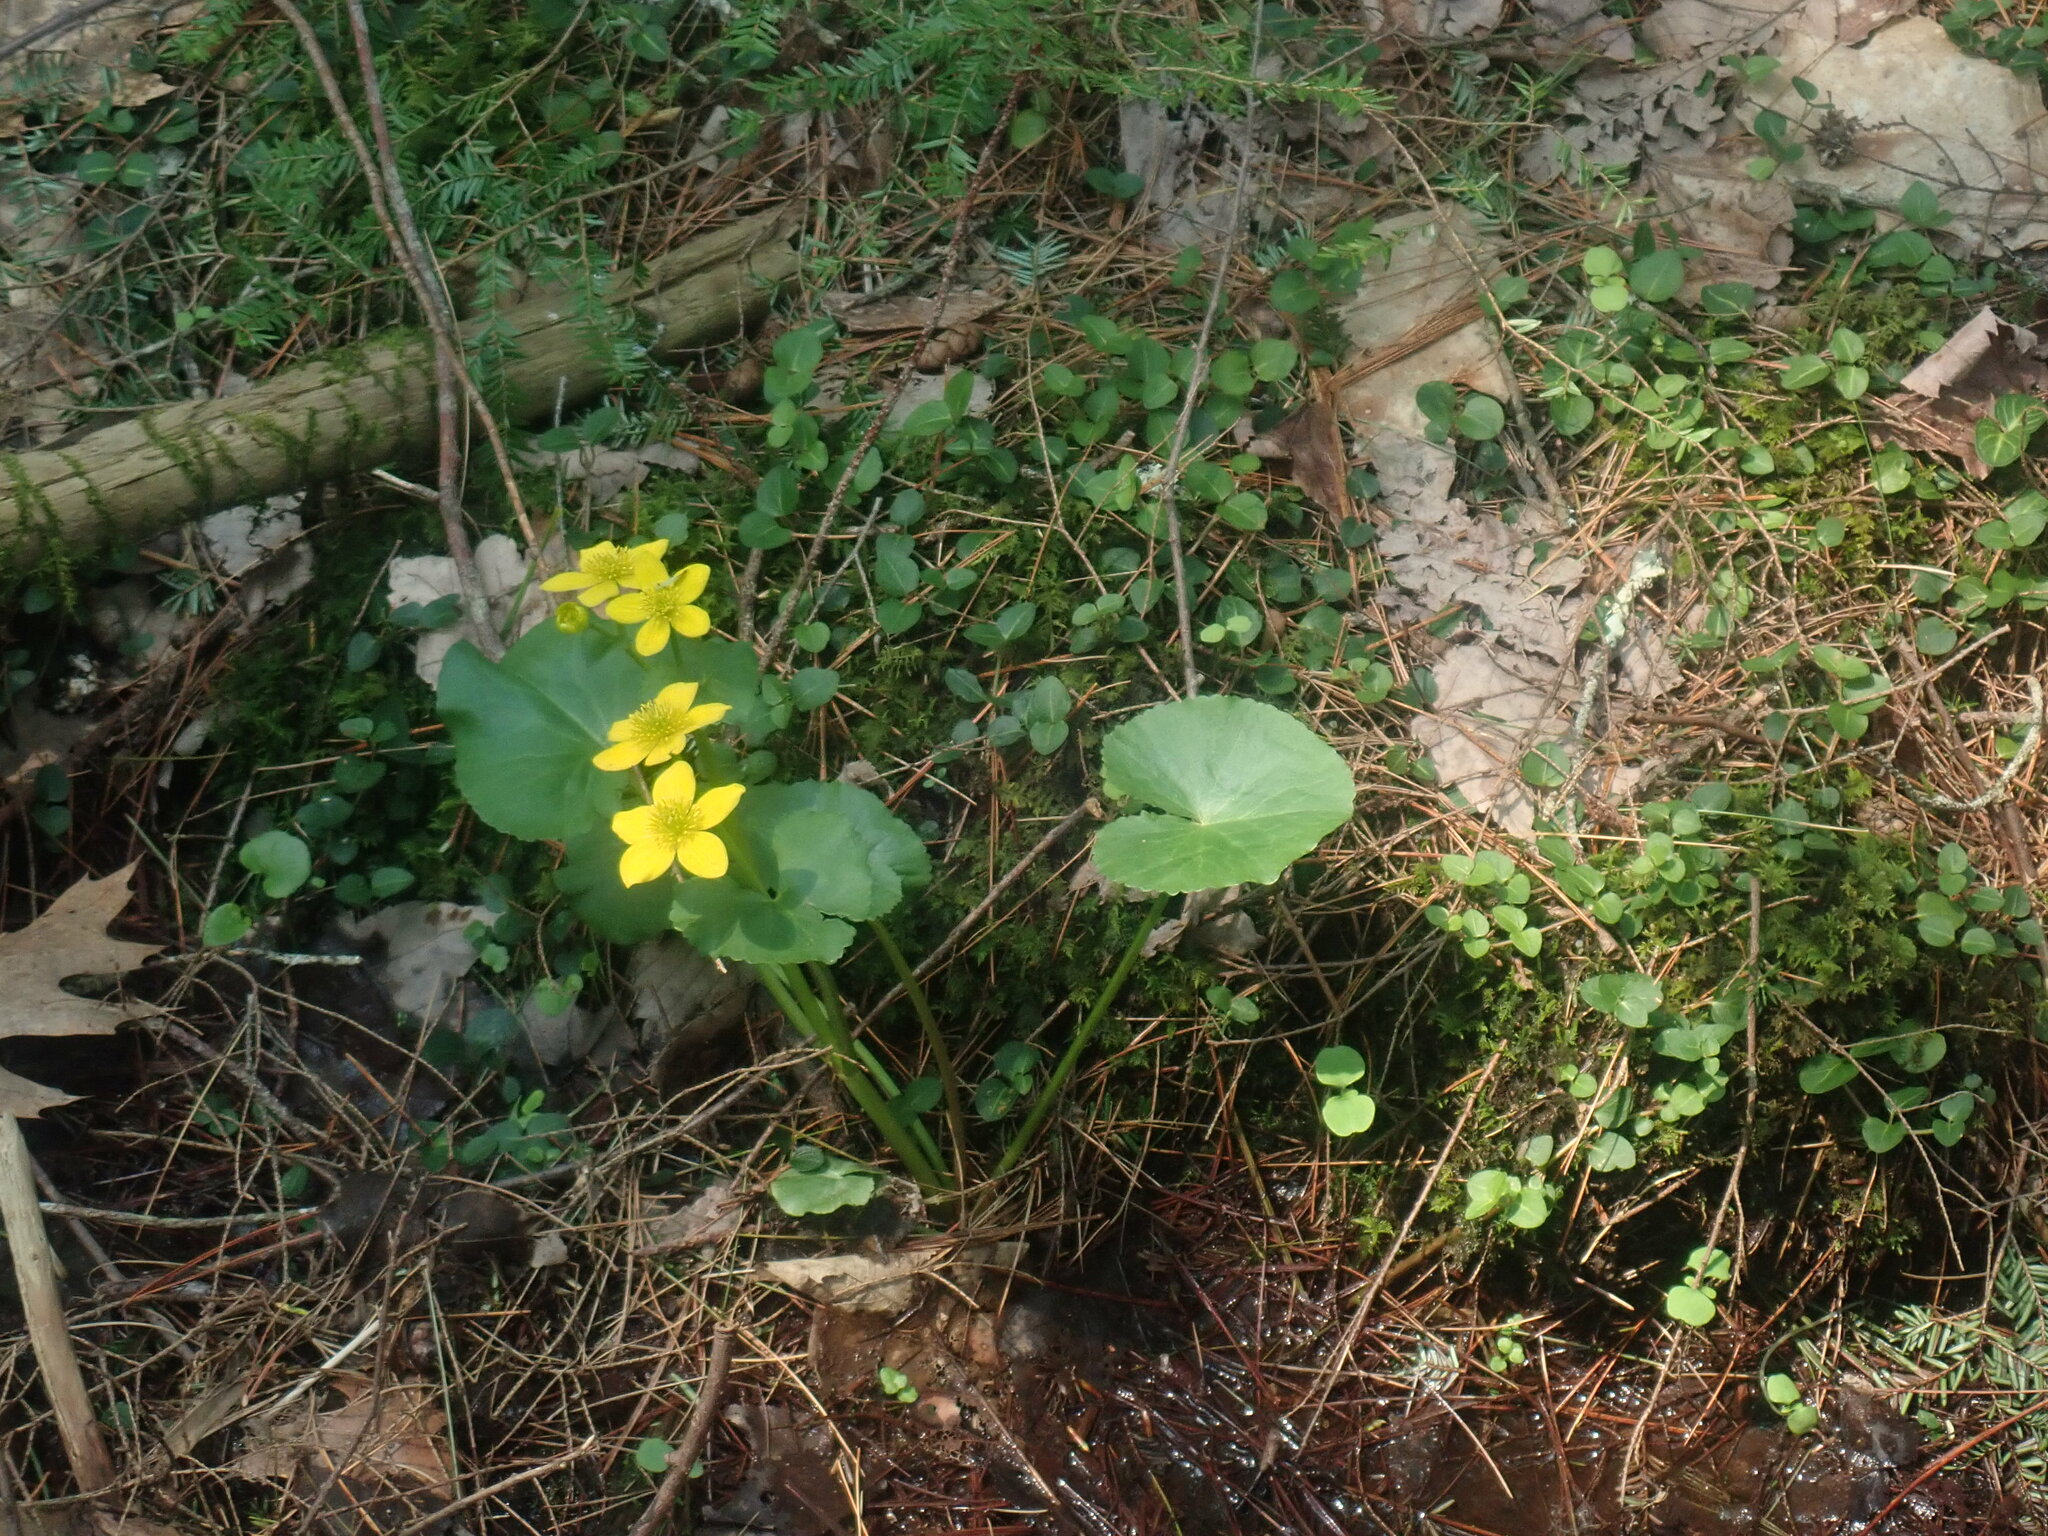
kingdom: Plantae
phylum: Tracheophyta
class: Magnoliopsida
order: Ranunculales
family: Ranunculaceae
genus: Caltha
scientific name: Caltha palustris
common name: Marsh marigold
